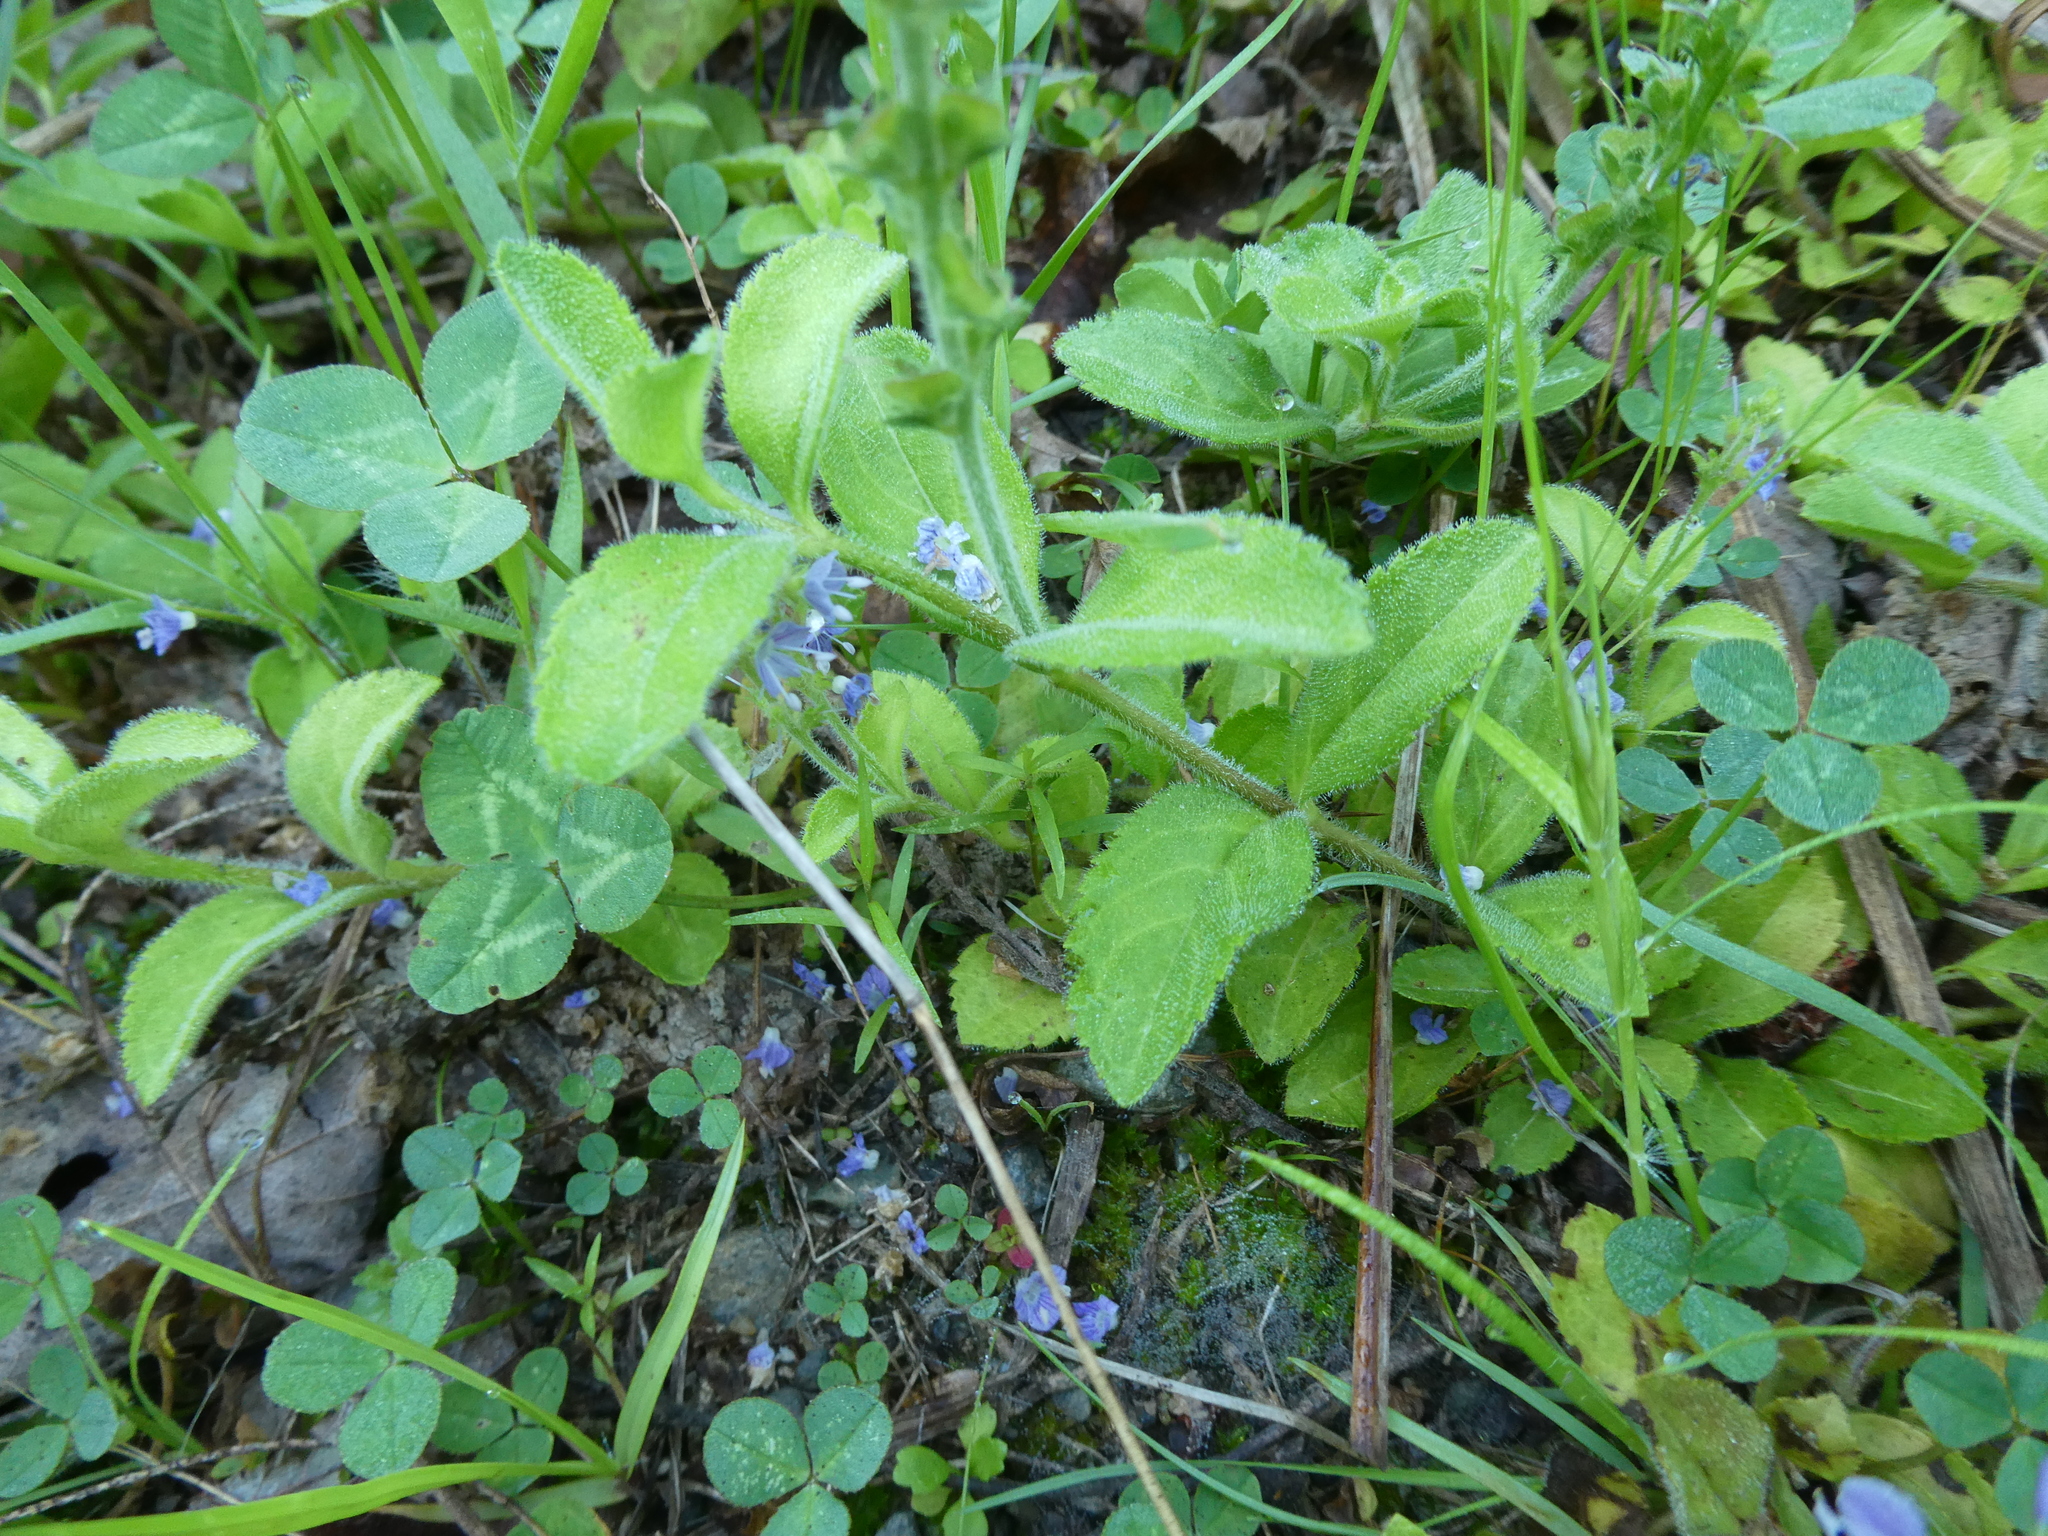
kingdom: Plantae
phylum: Tracheophyta
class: Magnoliopsida
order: Lamiales
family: Plantaginaceae
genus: Veronica
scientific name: Veronica officinalis
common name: Common speedwell
